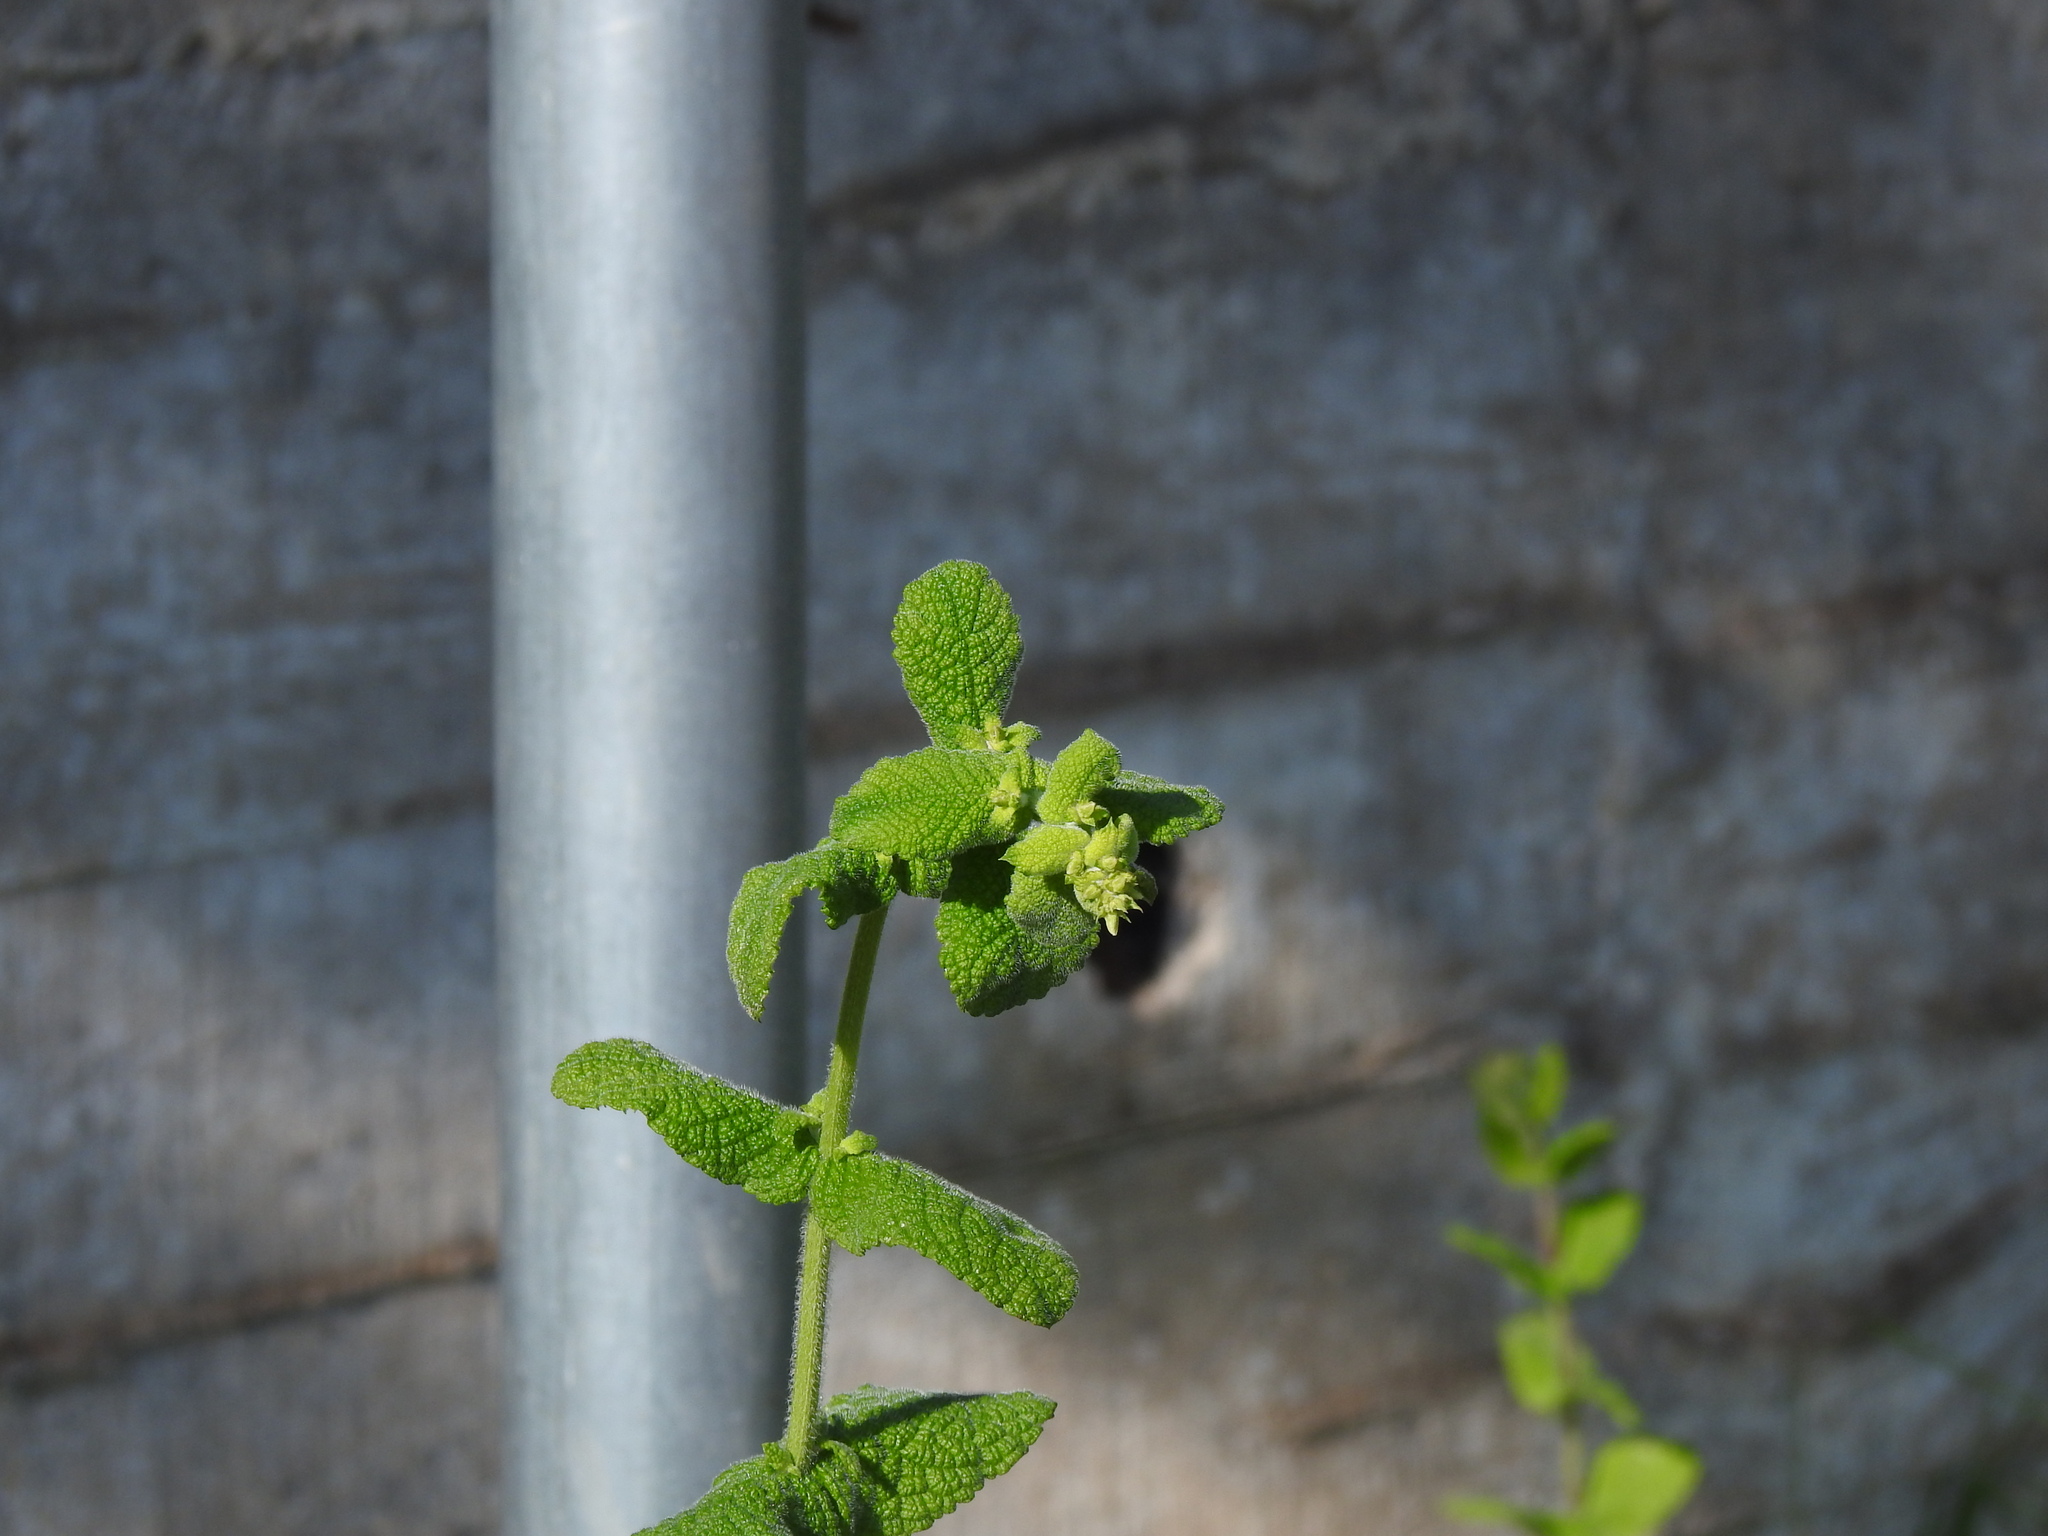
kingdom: Plantae
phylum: Tracheophyta
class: Magnoliopsida
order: Lamiales
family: Lamiaceae
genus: Mentha
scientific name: Mentha suaveolens
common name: Apple mint
